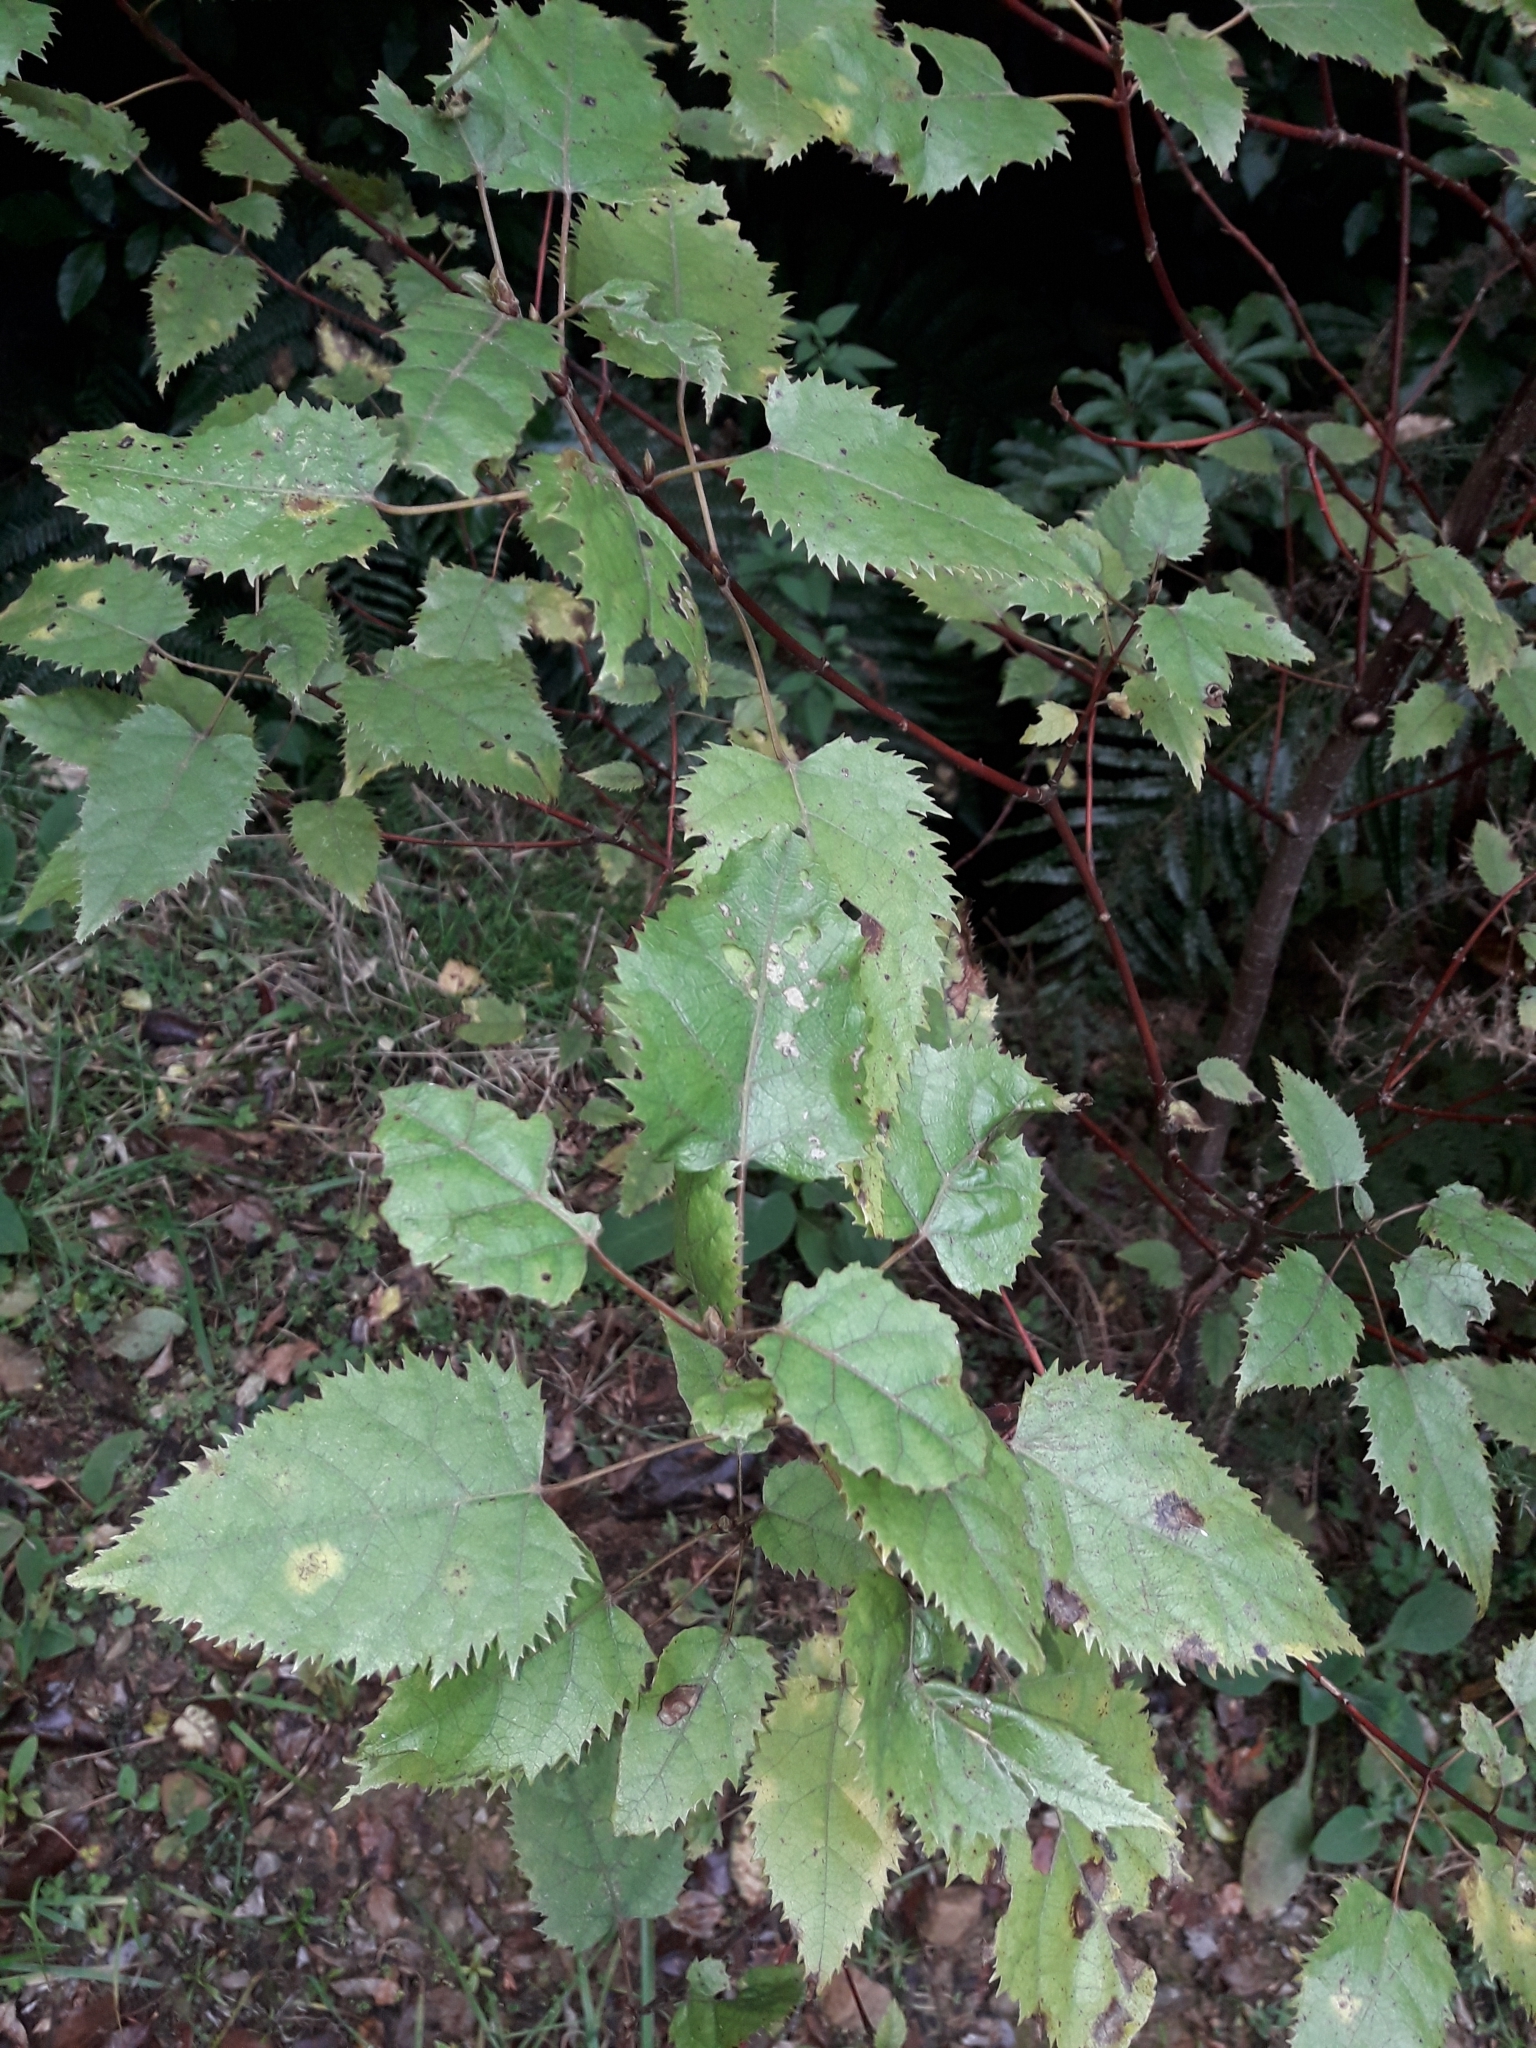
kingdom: Plantae
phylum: Tracheophyta
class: Magnoliopsida
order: Oxalidales
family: Elaeocarpaceae
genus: Aristotelia
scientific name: Aristotelia serrata
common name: New zealand wineberry
